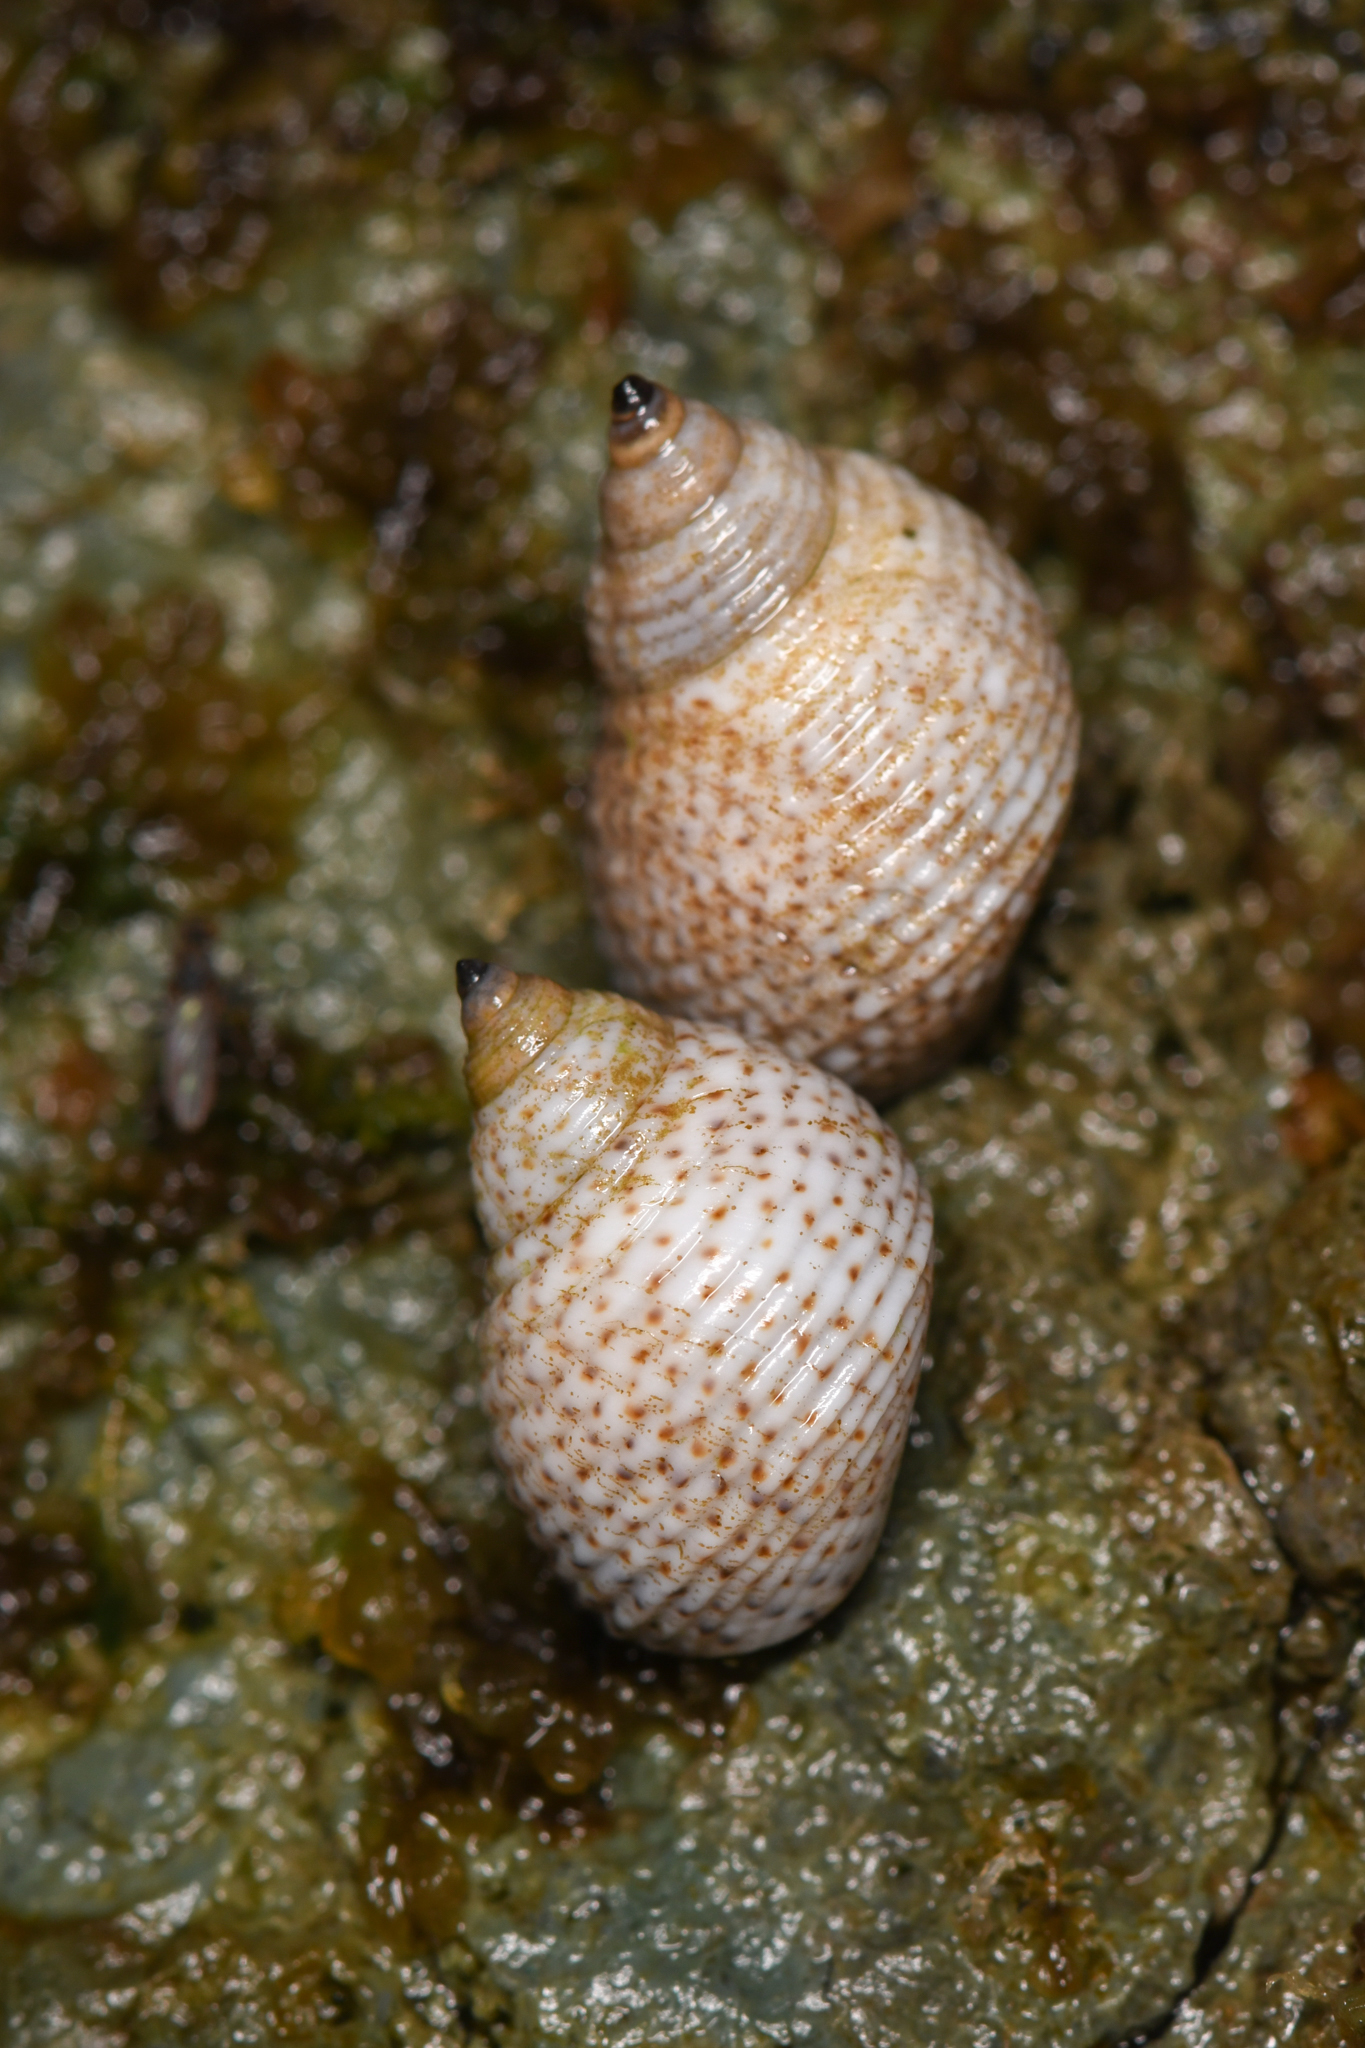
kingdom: Animalia
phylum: Mollusca
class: Gastropoda
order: Littorinimorpha
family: Littorinidae
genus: Echinolittorina
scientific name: Echinolittorina modesta
